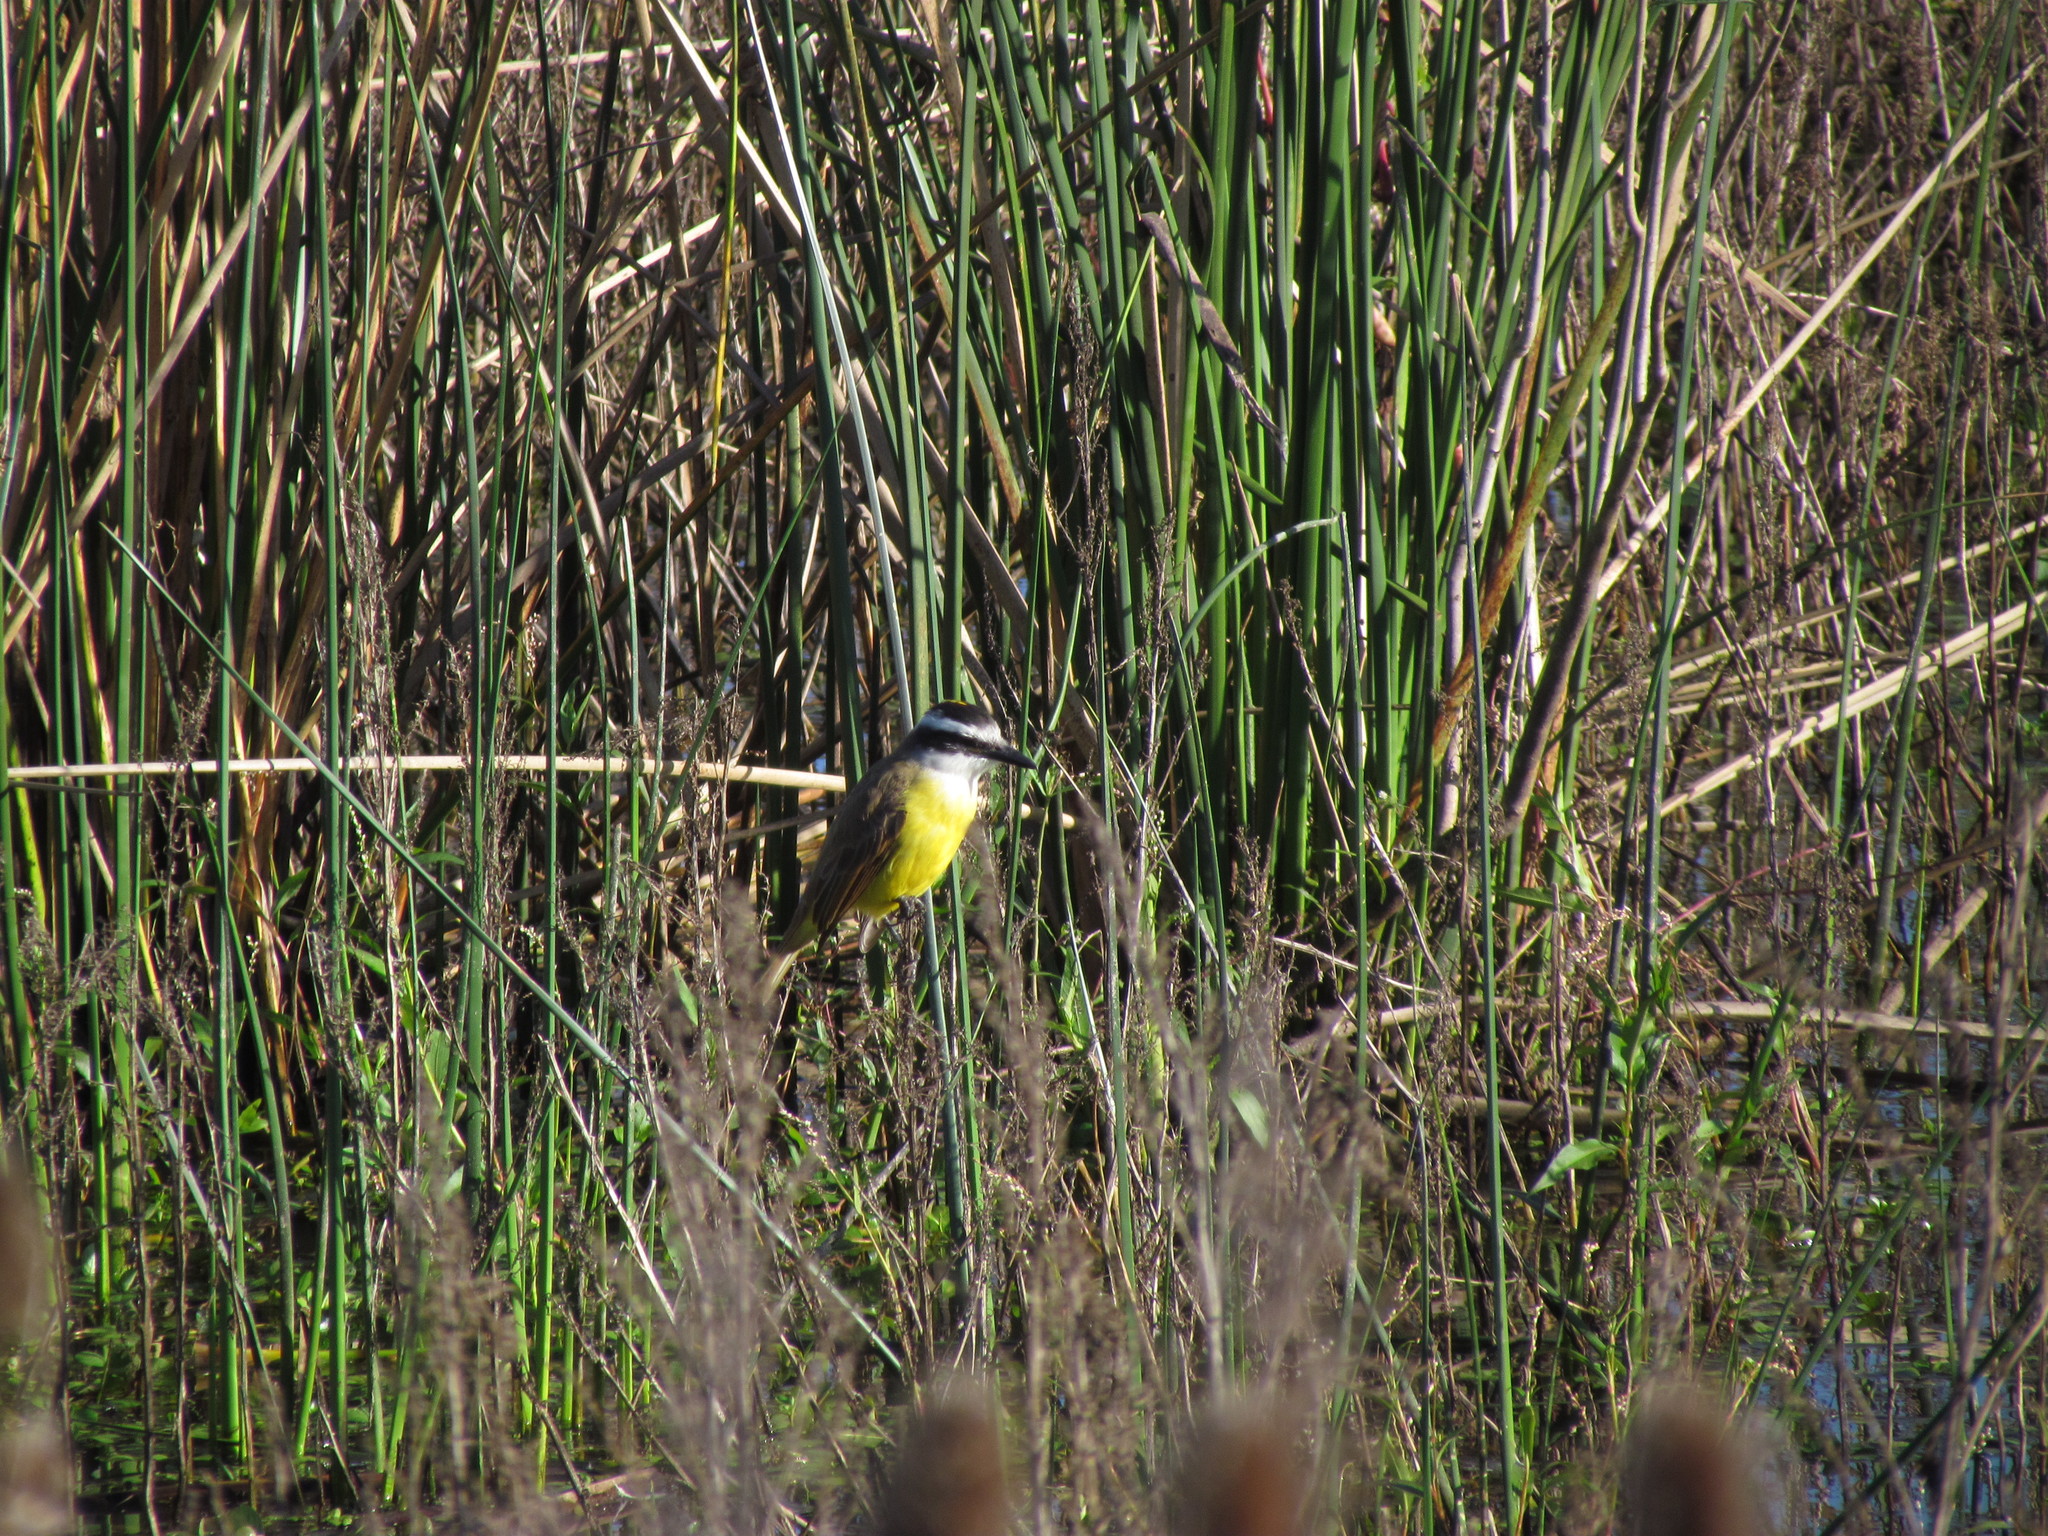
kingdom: Animalia
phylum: Chordata
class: Aves
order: Passeriformes
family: Tyrannidae
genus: Pitangus
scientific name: Pitangus sulphuratus
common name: Great kiskadee
